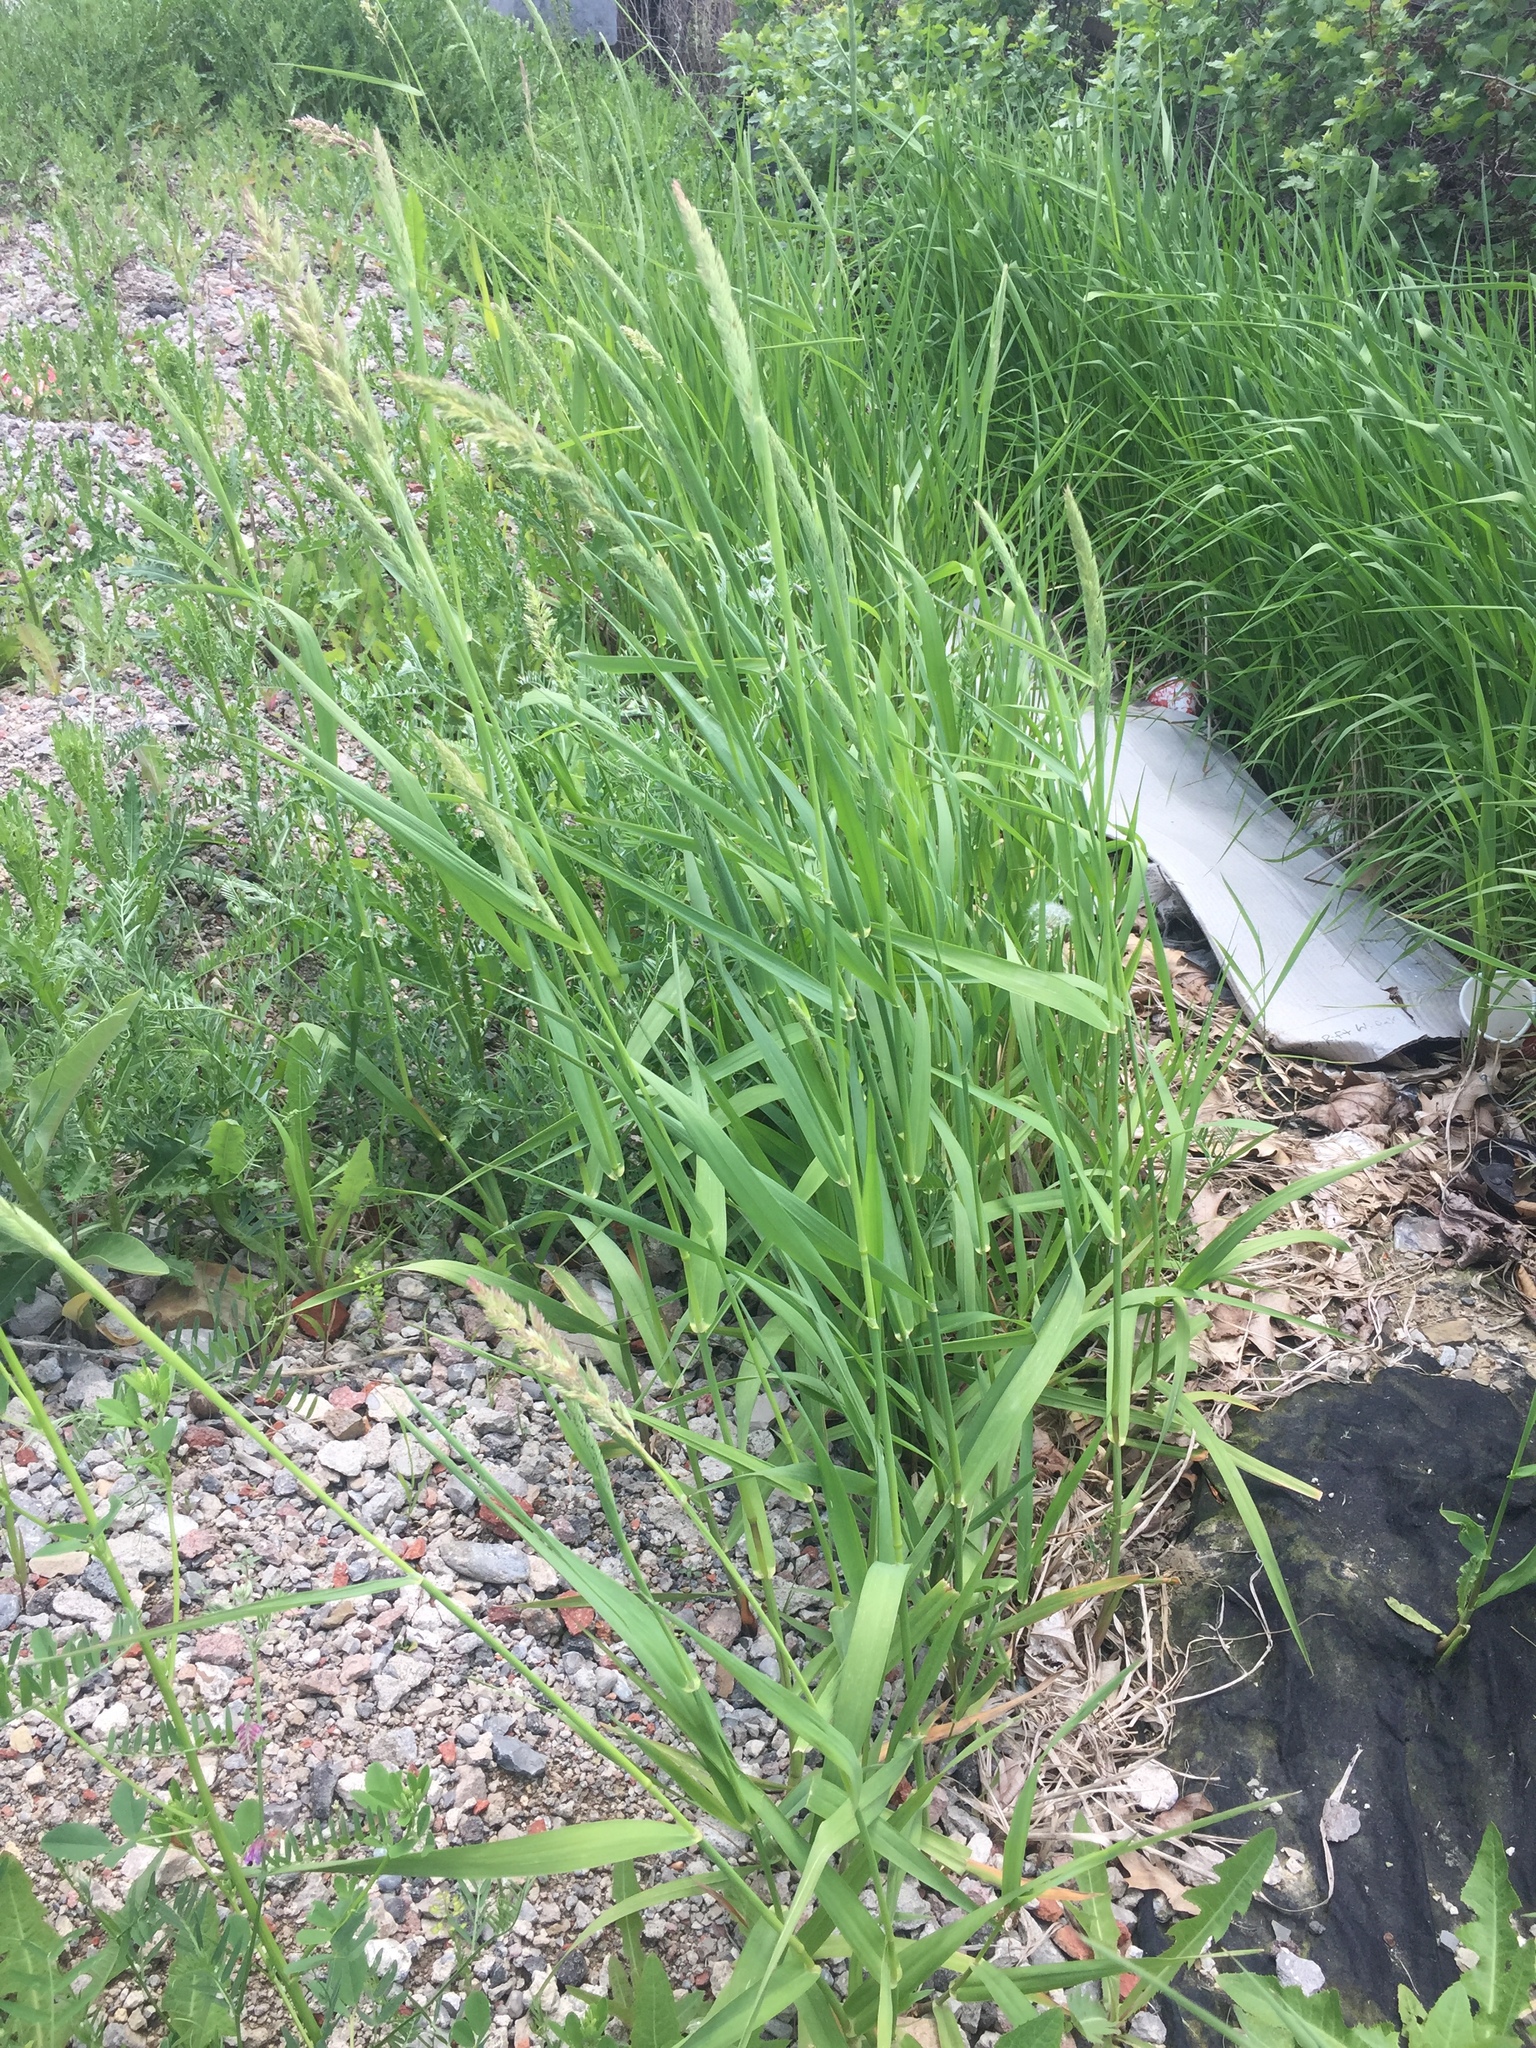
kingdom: Plantae
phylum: Tracheophyta
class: Liliopsida
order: Poales
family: Poaceae
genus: Phalaris
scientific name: Phalaris arundinacea
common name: Reed canary-grass
